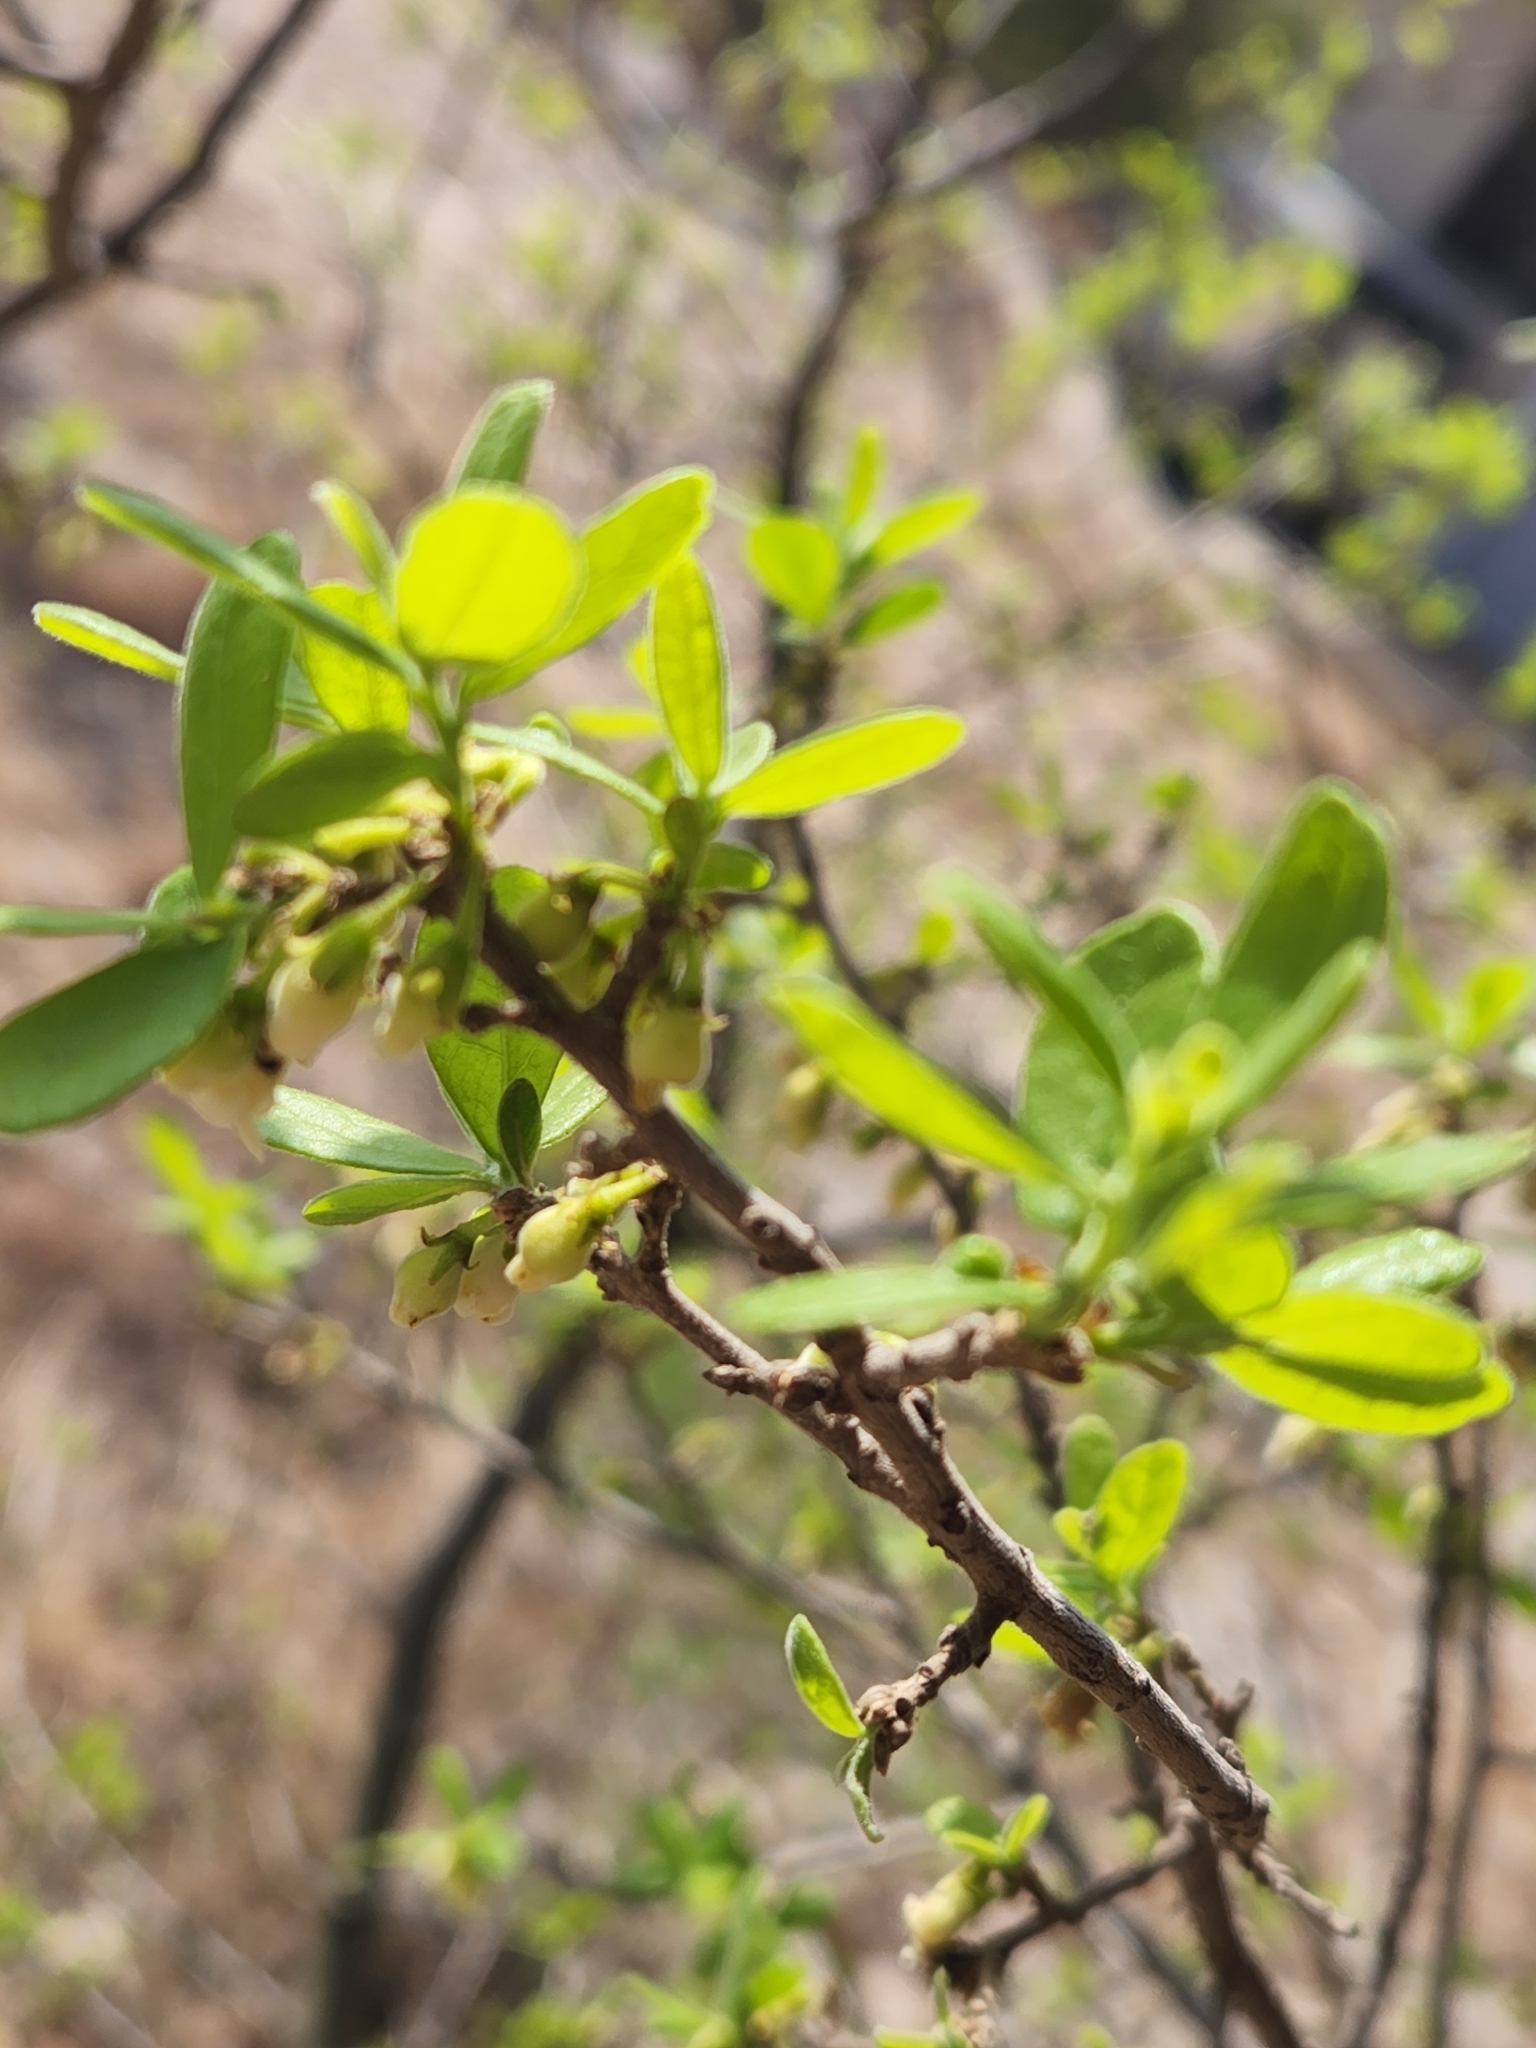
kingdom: Plantae
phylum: Tracheophyta
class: Magnoliopsida
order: Ericales
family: Ebenaceae
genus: Diospyros
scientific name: Diospyros texana
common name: Texas persimmon
